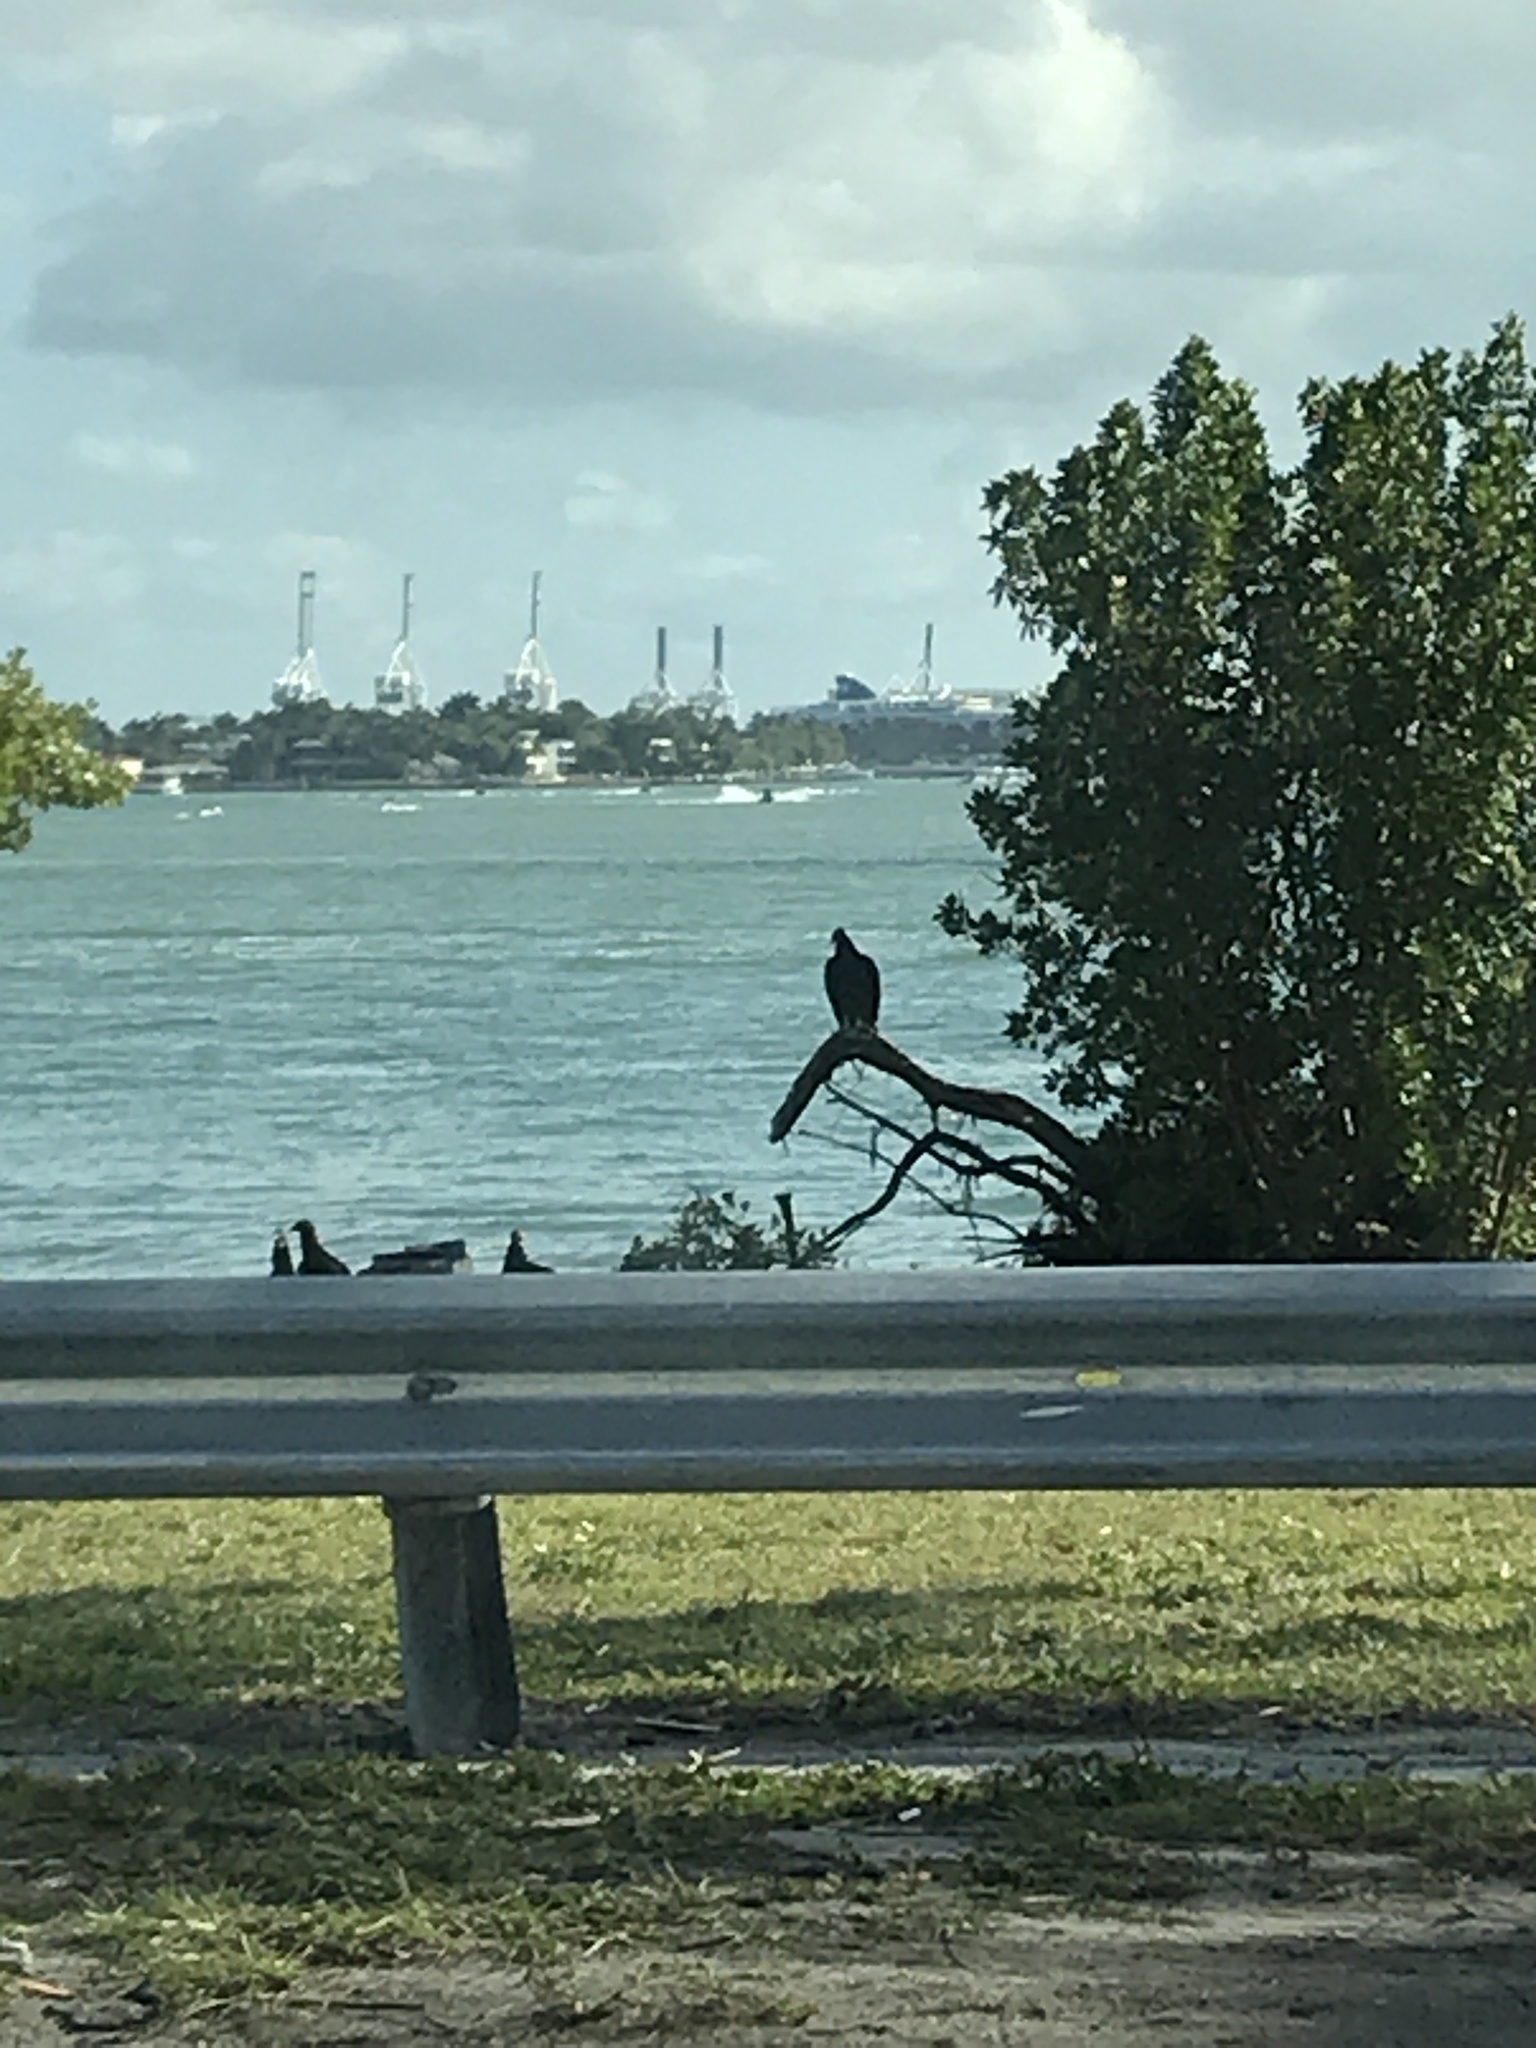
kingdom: Animalia
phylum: Chordata
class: Aves
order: Accipitriformes
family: Cathartidae
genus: Cathartes
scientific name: Cathartes aura
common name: Turkey vulture
